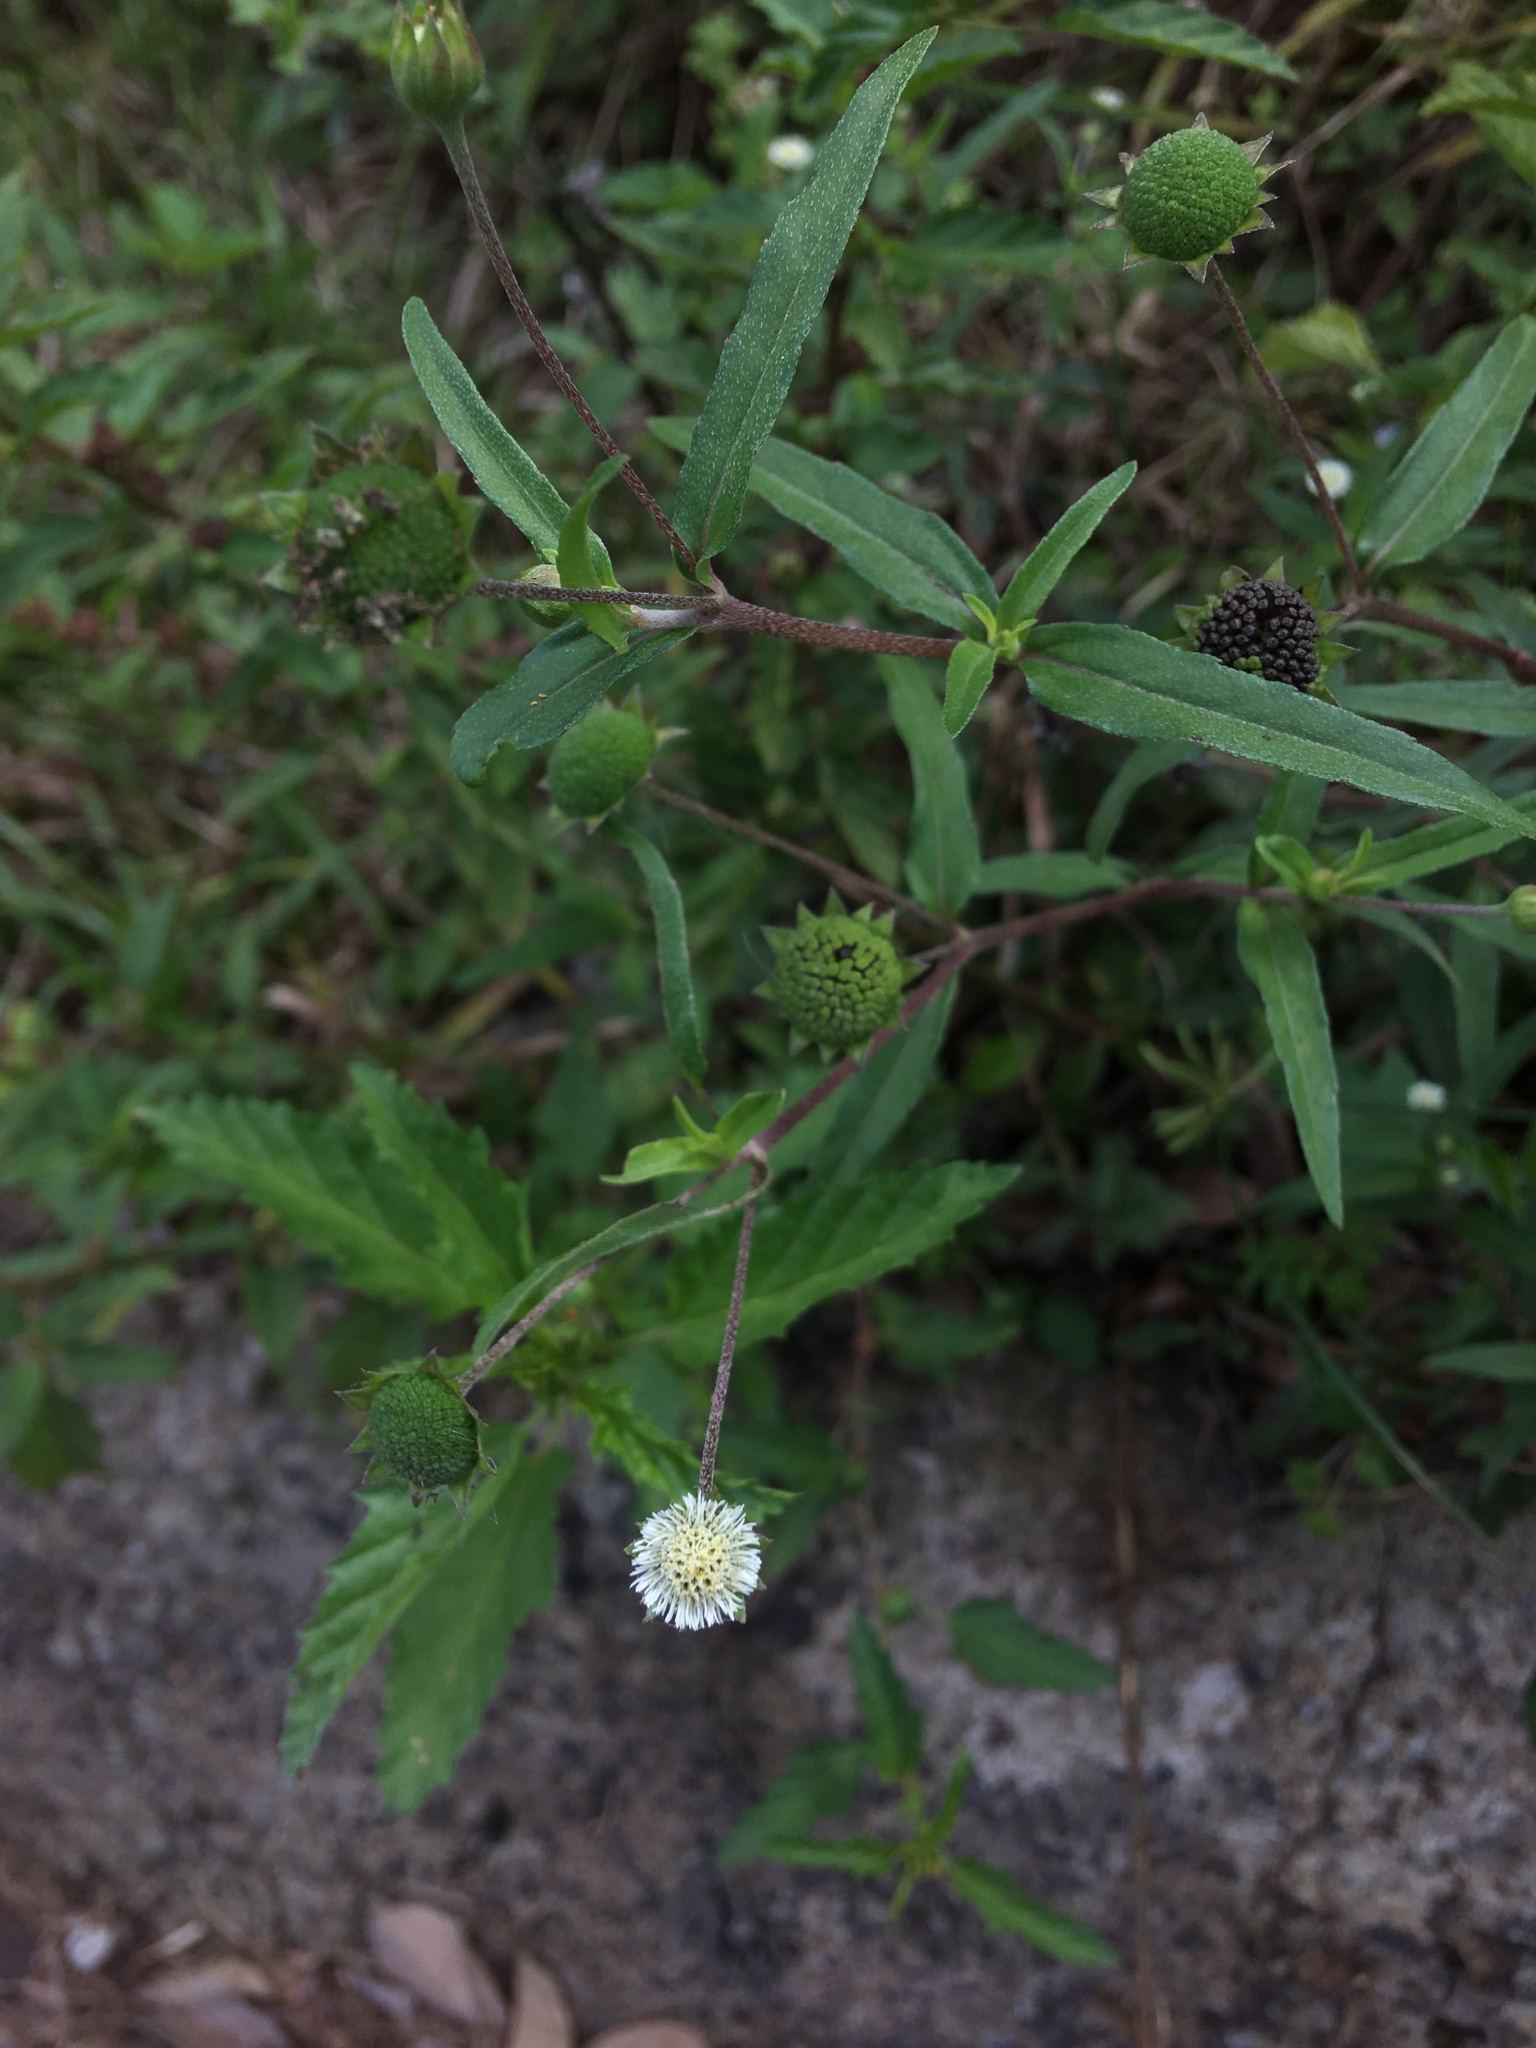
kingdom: Plantae
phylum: Tracheophyta
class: Magnoliopsida
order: Asterales
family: Asteraceae
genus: Eclipta
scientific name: Eclipta prostrata
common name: False daisy
